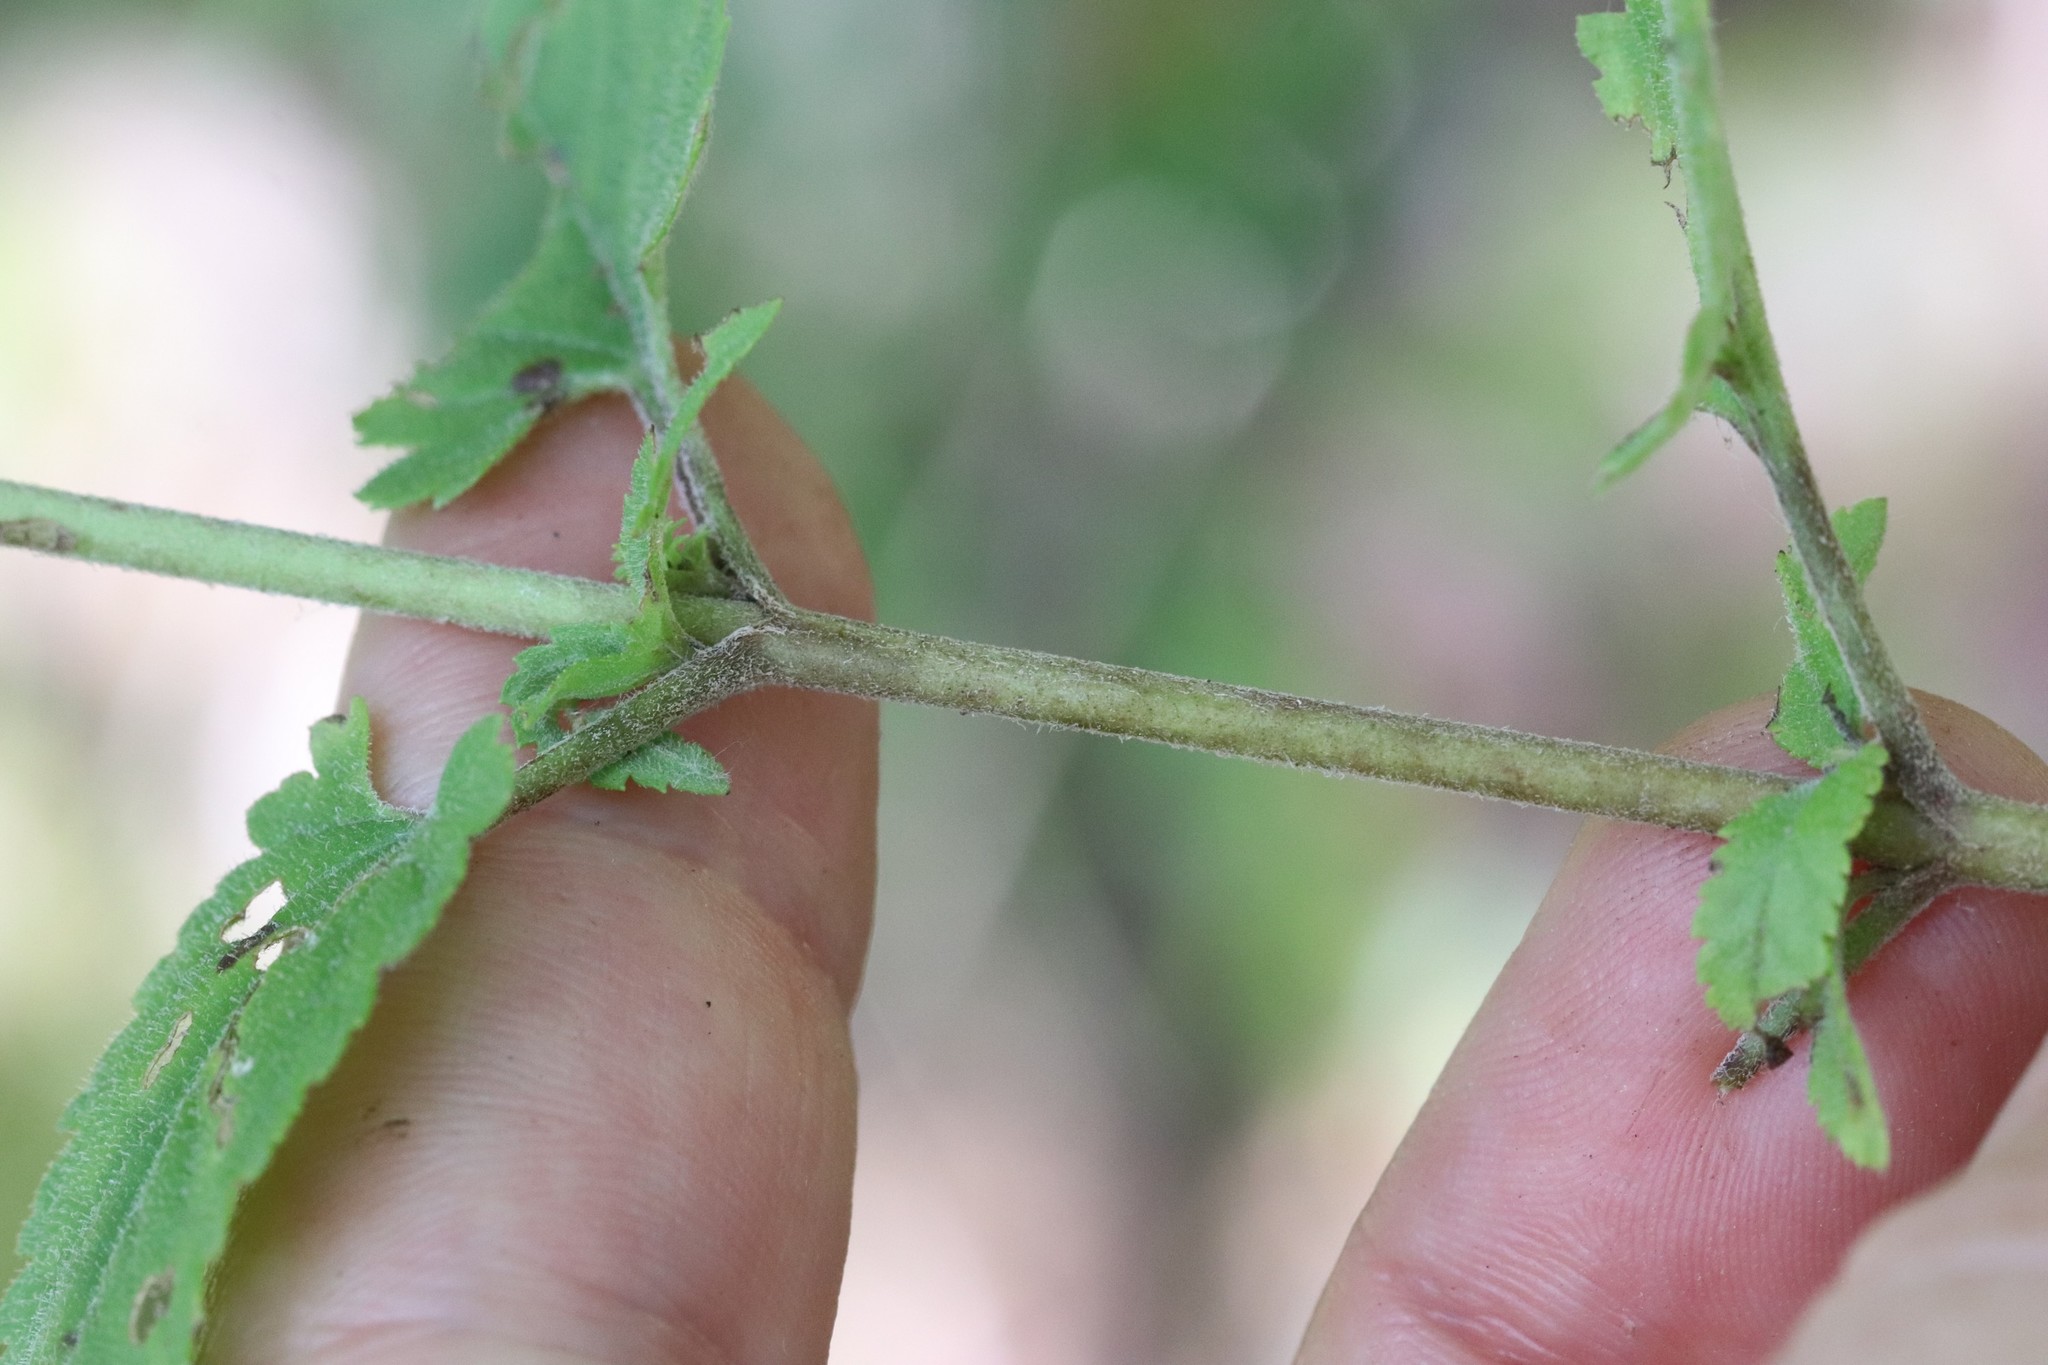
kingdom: Plantae
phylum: Tracheophyta
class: Magnoliopsida
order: Lamiales
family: Plantaginaceae
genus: Veronica
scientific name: Veronica daurica
